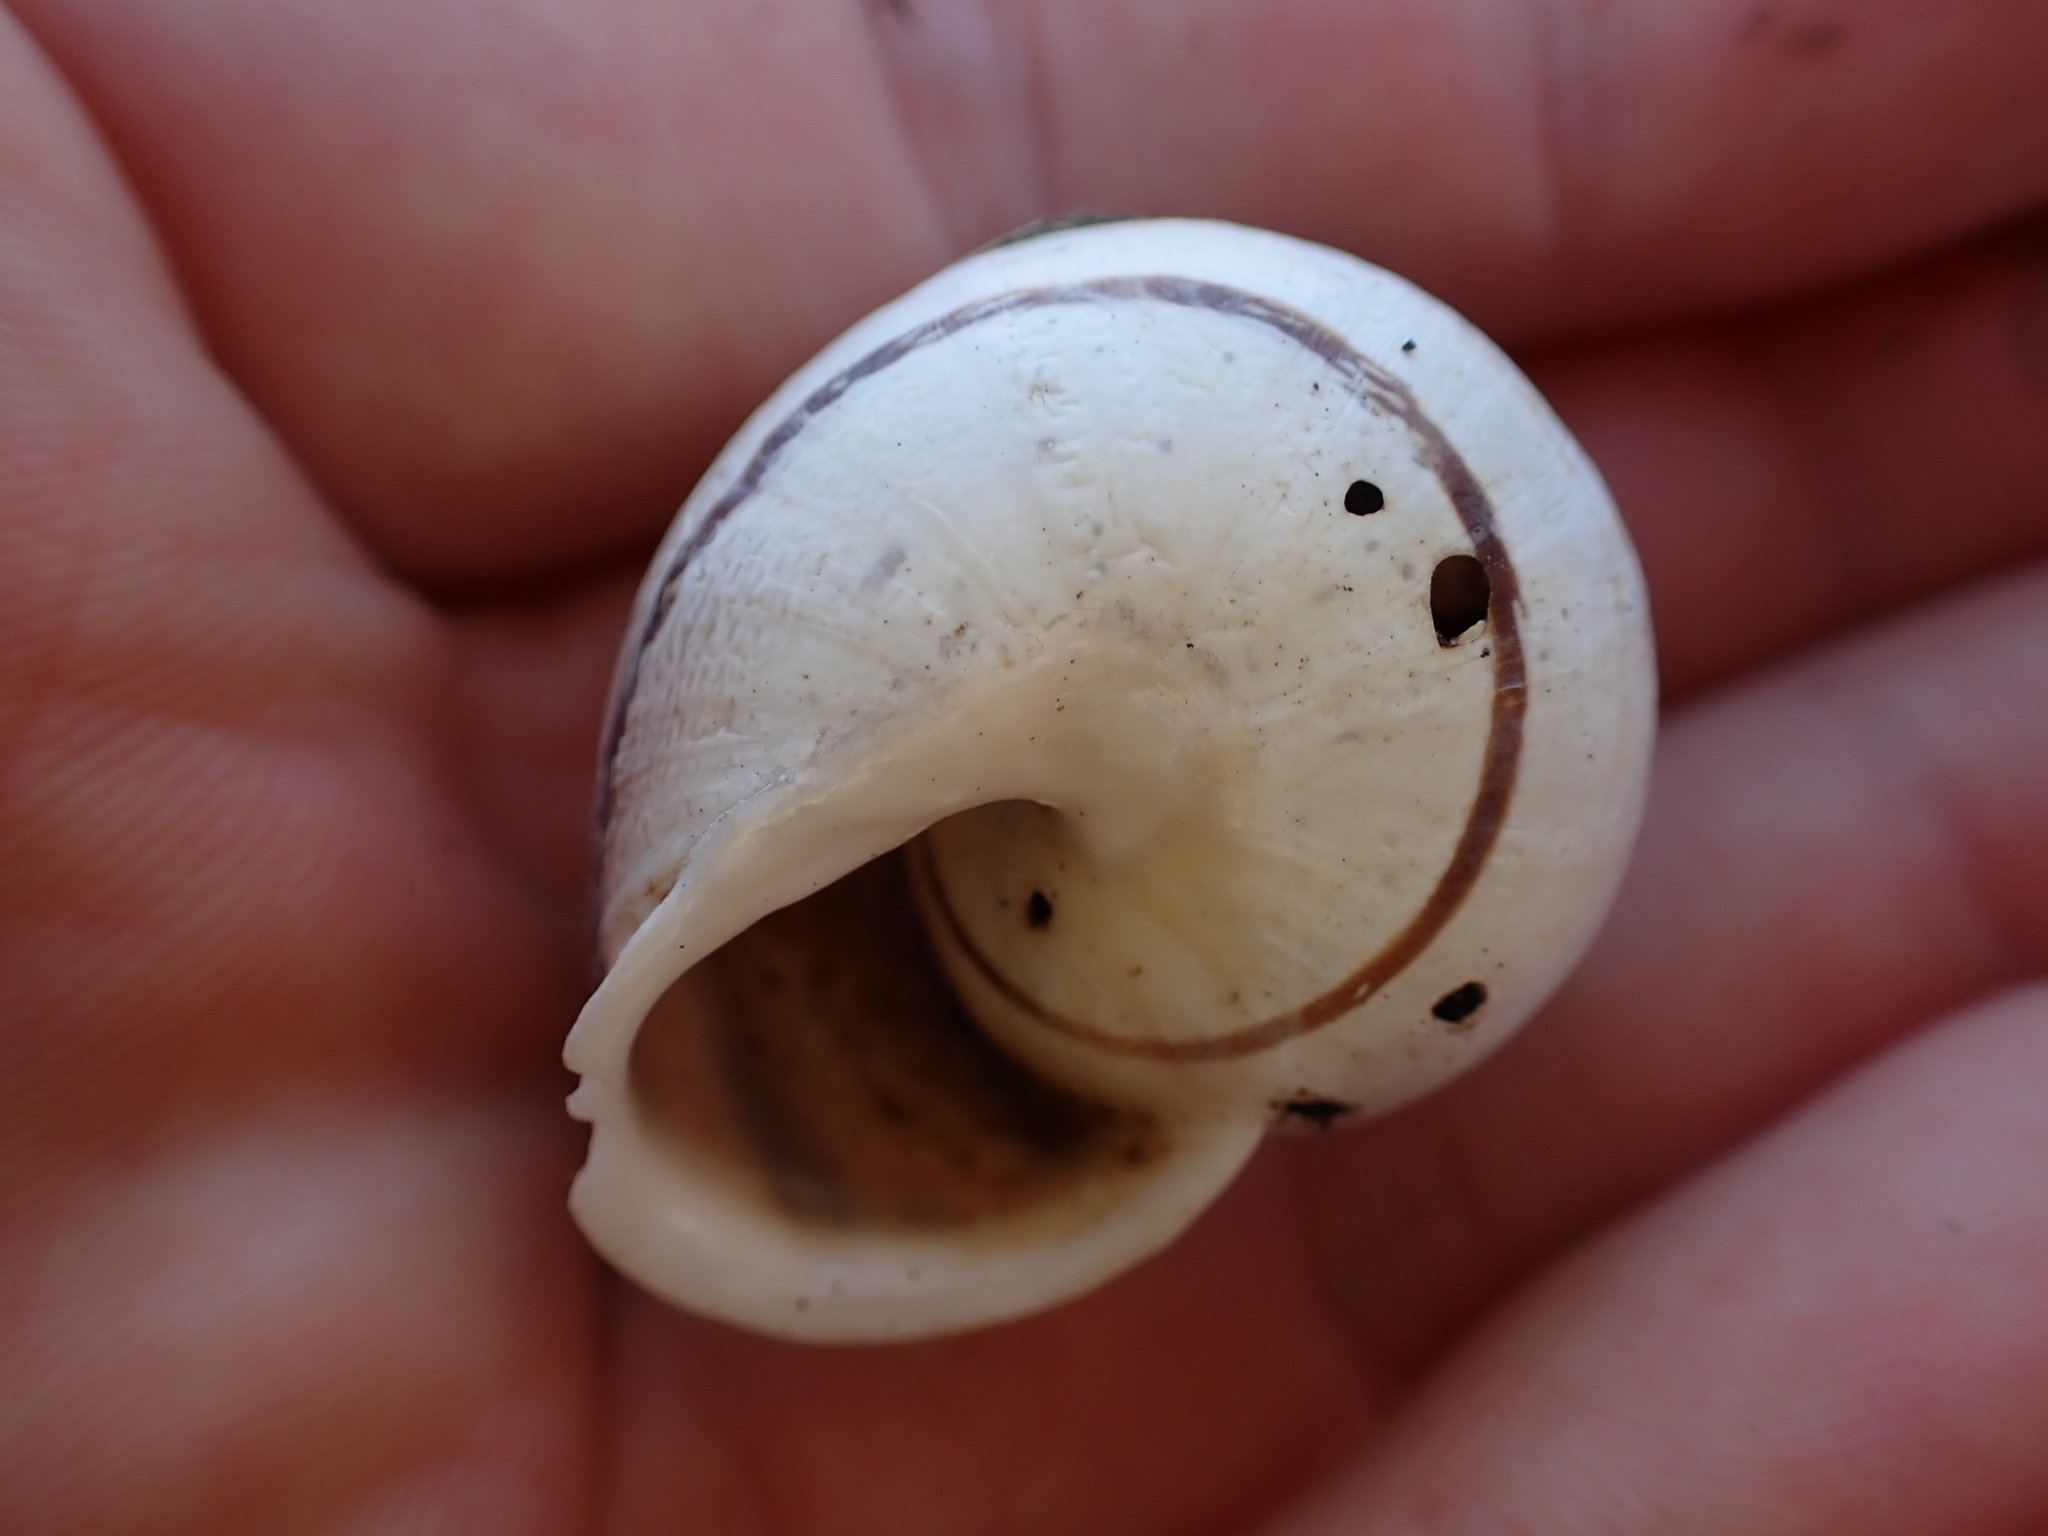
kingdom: Animalia
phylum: Mollusca
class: Gastropoda
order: Stylommatophora
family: Helicidae
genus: Eobania
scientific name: Eobania vermiculata
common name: Chocolateband snail
